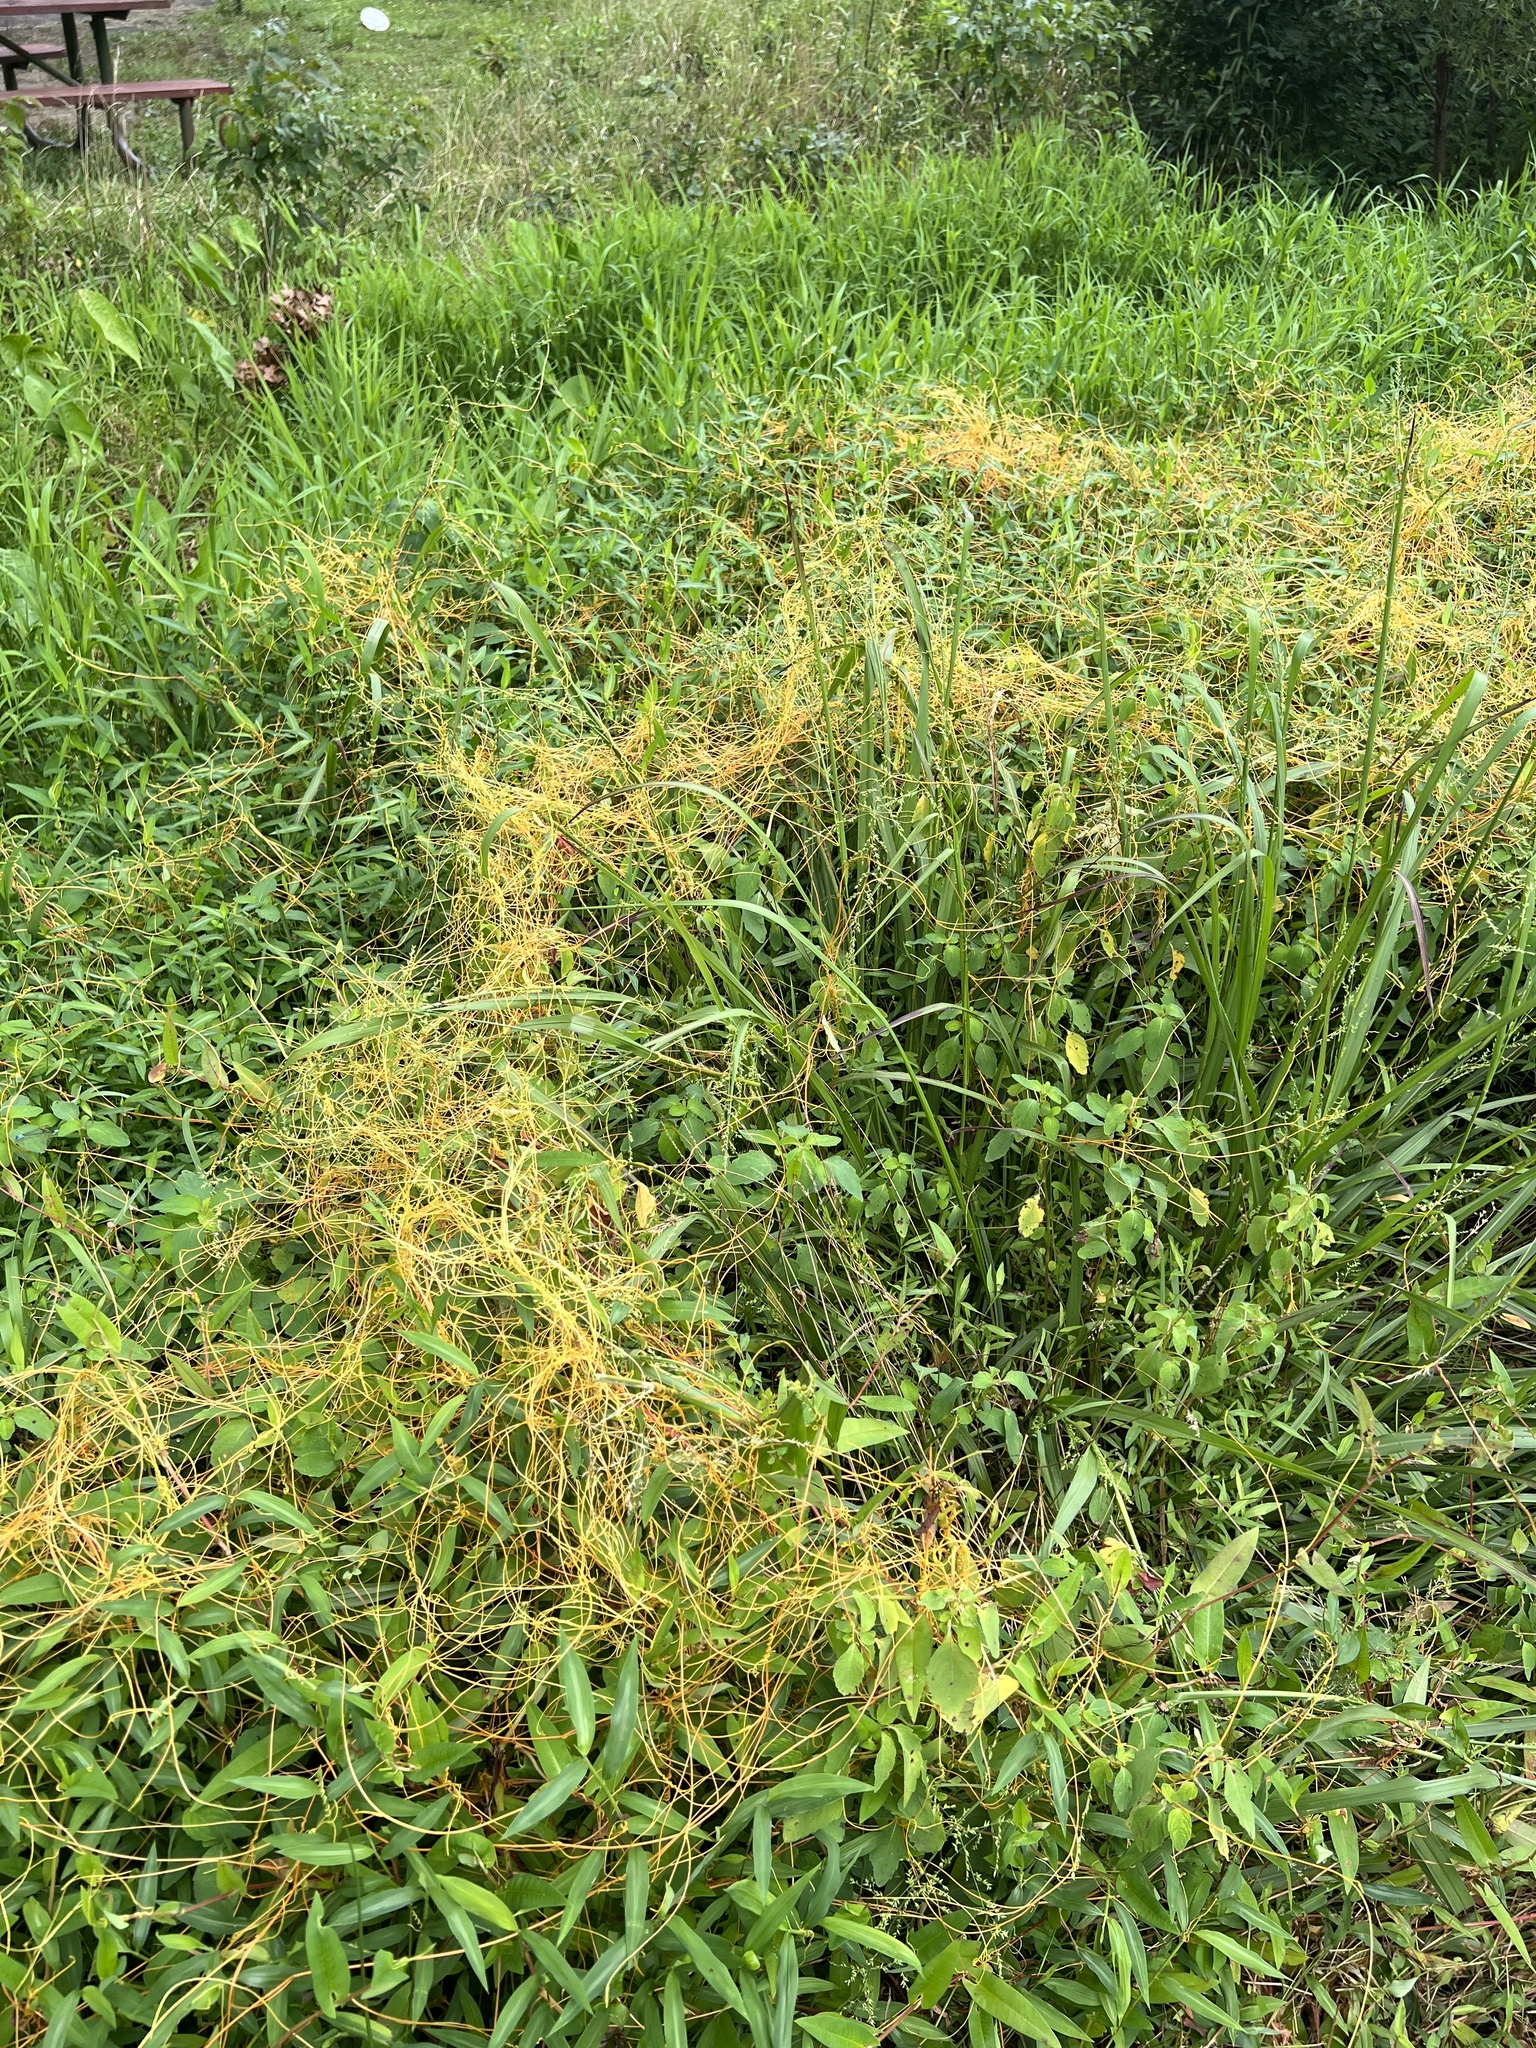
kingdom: Plantae
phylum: Tracheophyta
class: Magnoliopsida
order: Solanales
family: Convolvulaceae
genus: Cuscuta
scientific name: Cuscuta gronovii
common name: Common dodder
